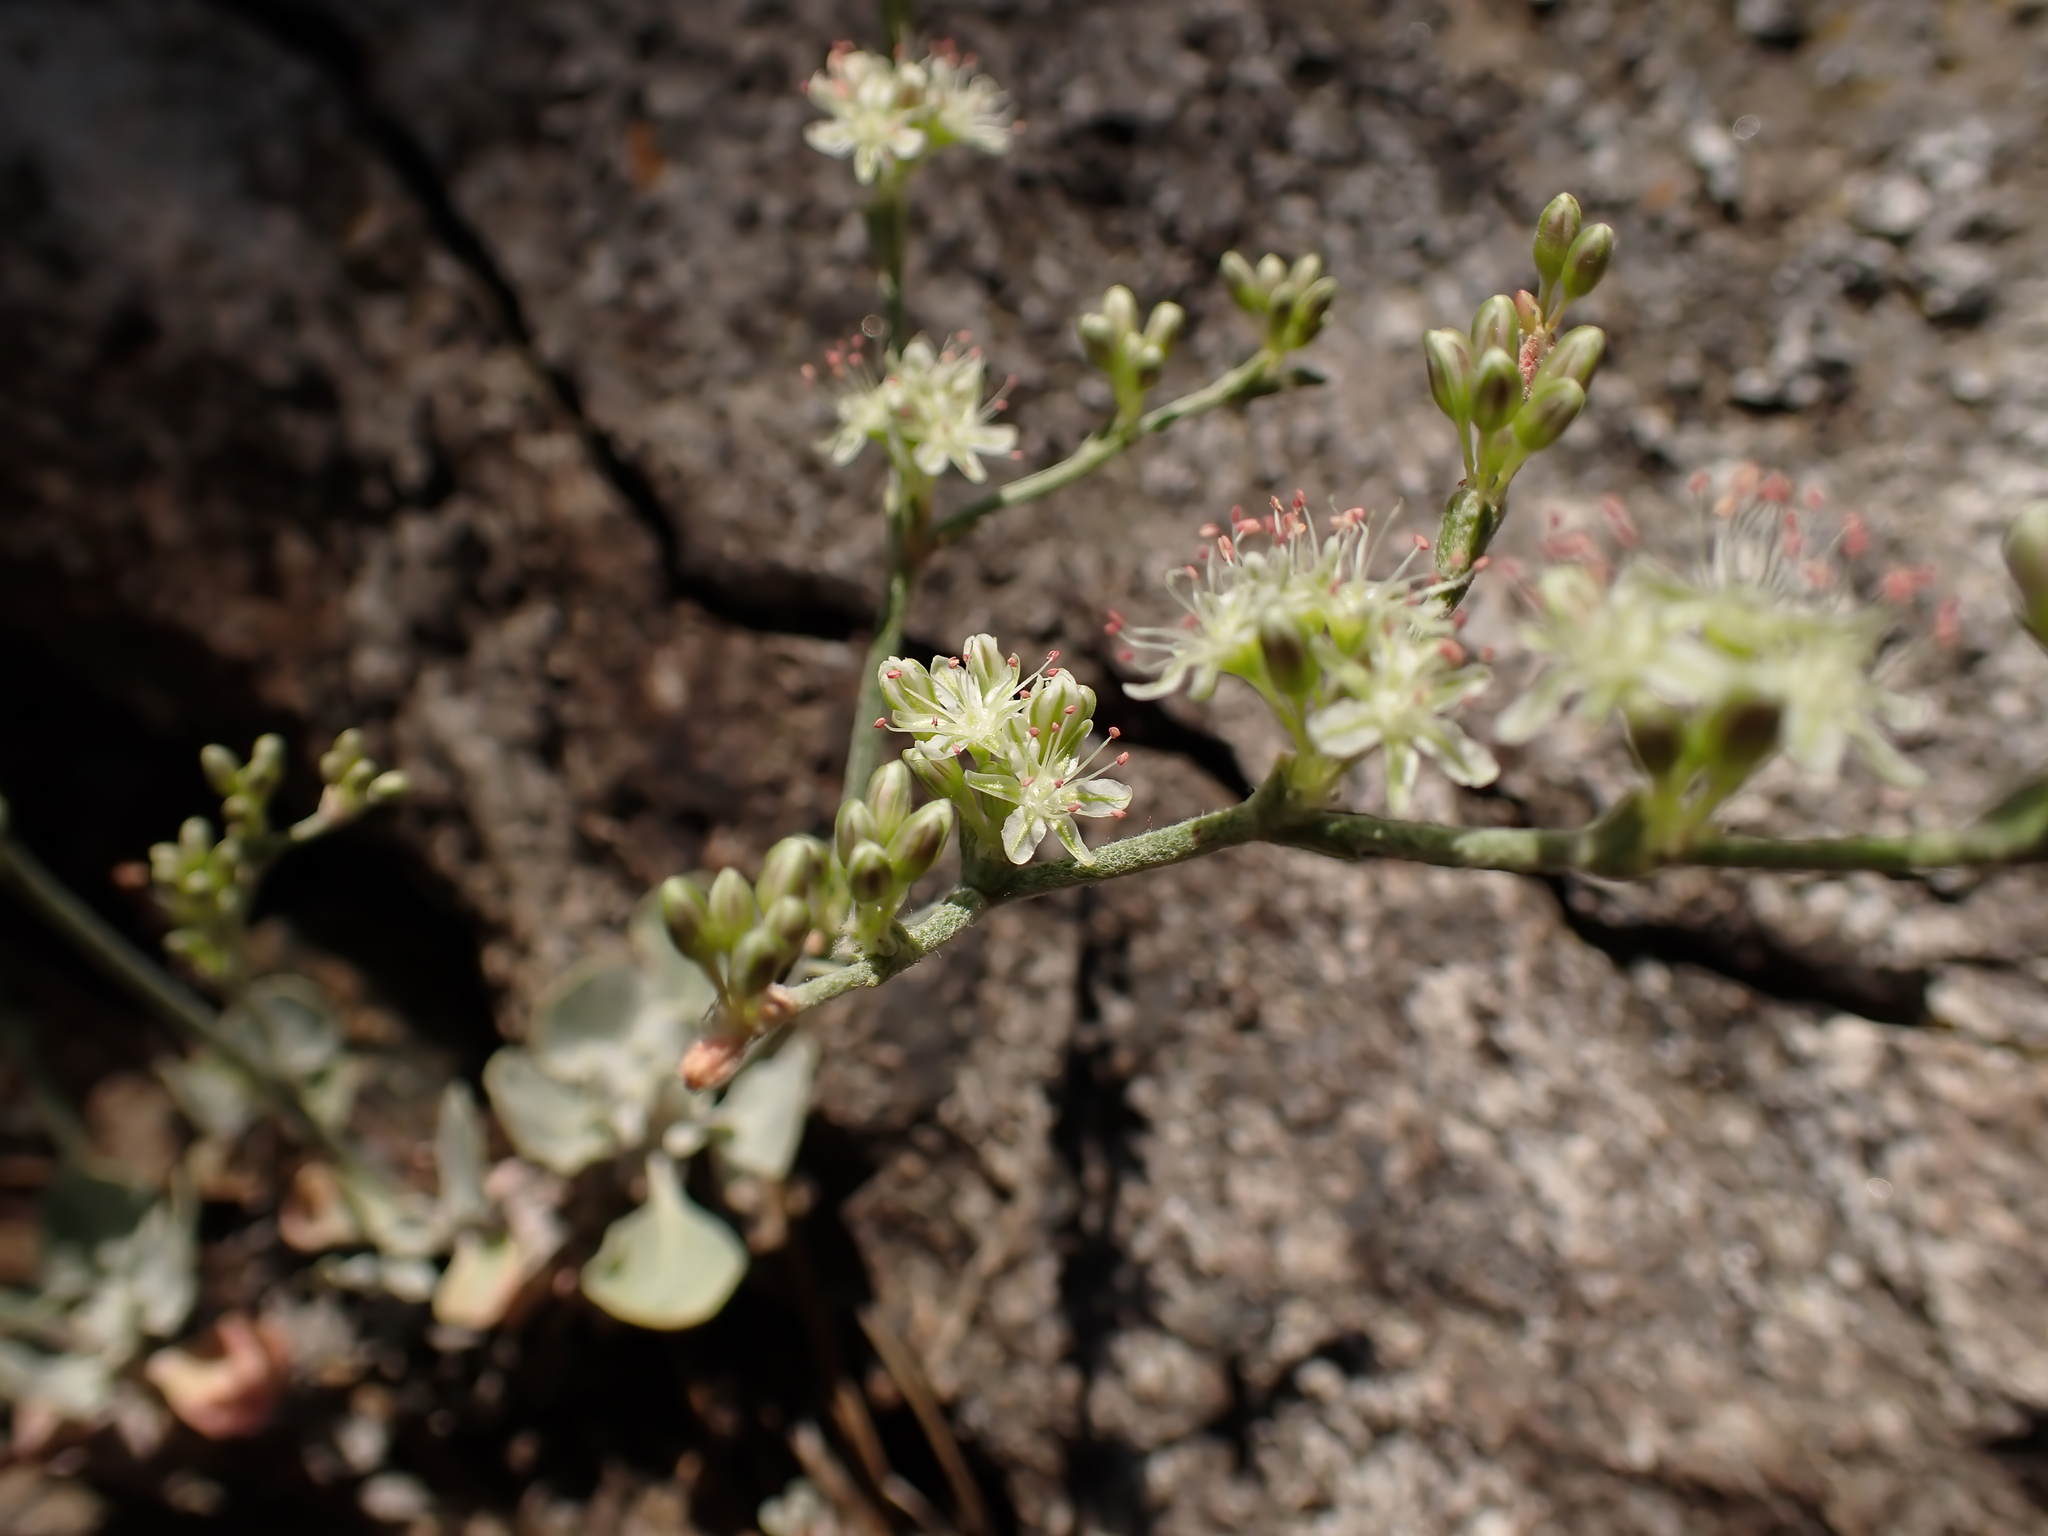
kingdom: Plantae
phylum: Tracheophyta
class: Magnoliopsida
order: Caryophyllales
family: Polygonaceae
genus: Eriogonum
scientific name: Eriogonum saxatile
